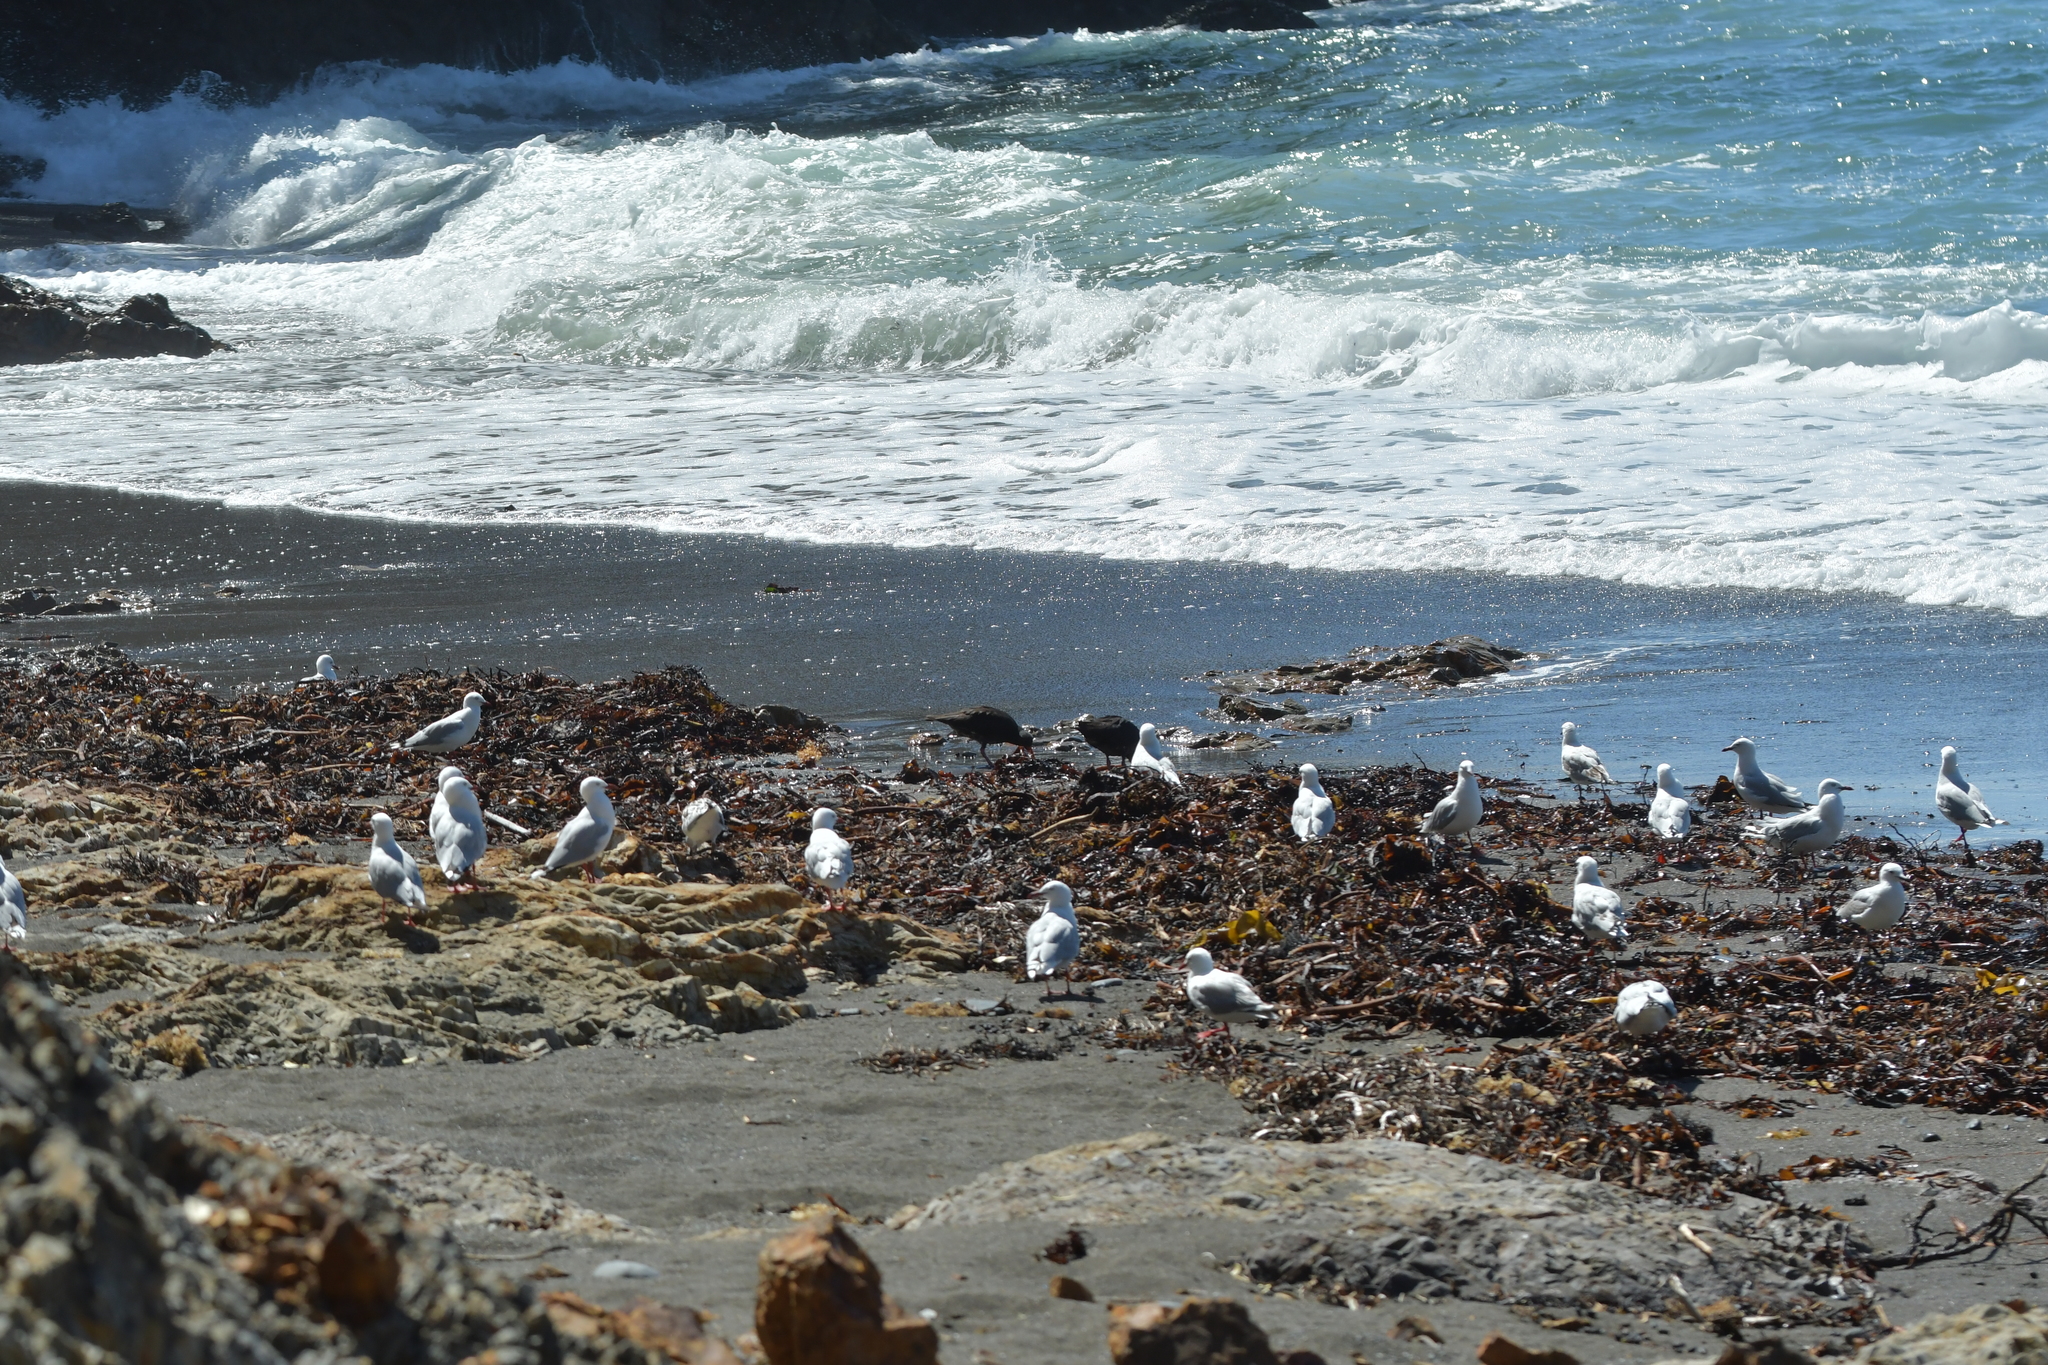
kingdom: Animalia
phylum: Chordata
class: Aves
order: Charadriiformes
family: Laridae
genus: Chroicocephalus
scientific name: Chroicocephalus novaehollandiae
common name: Silver gull
